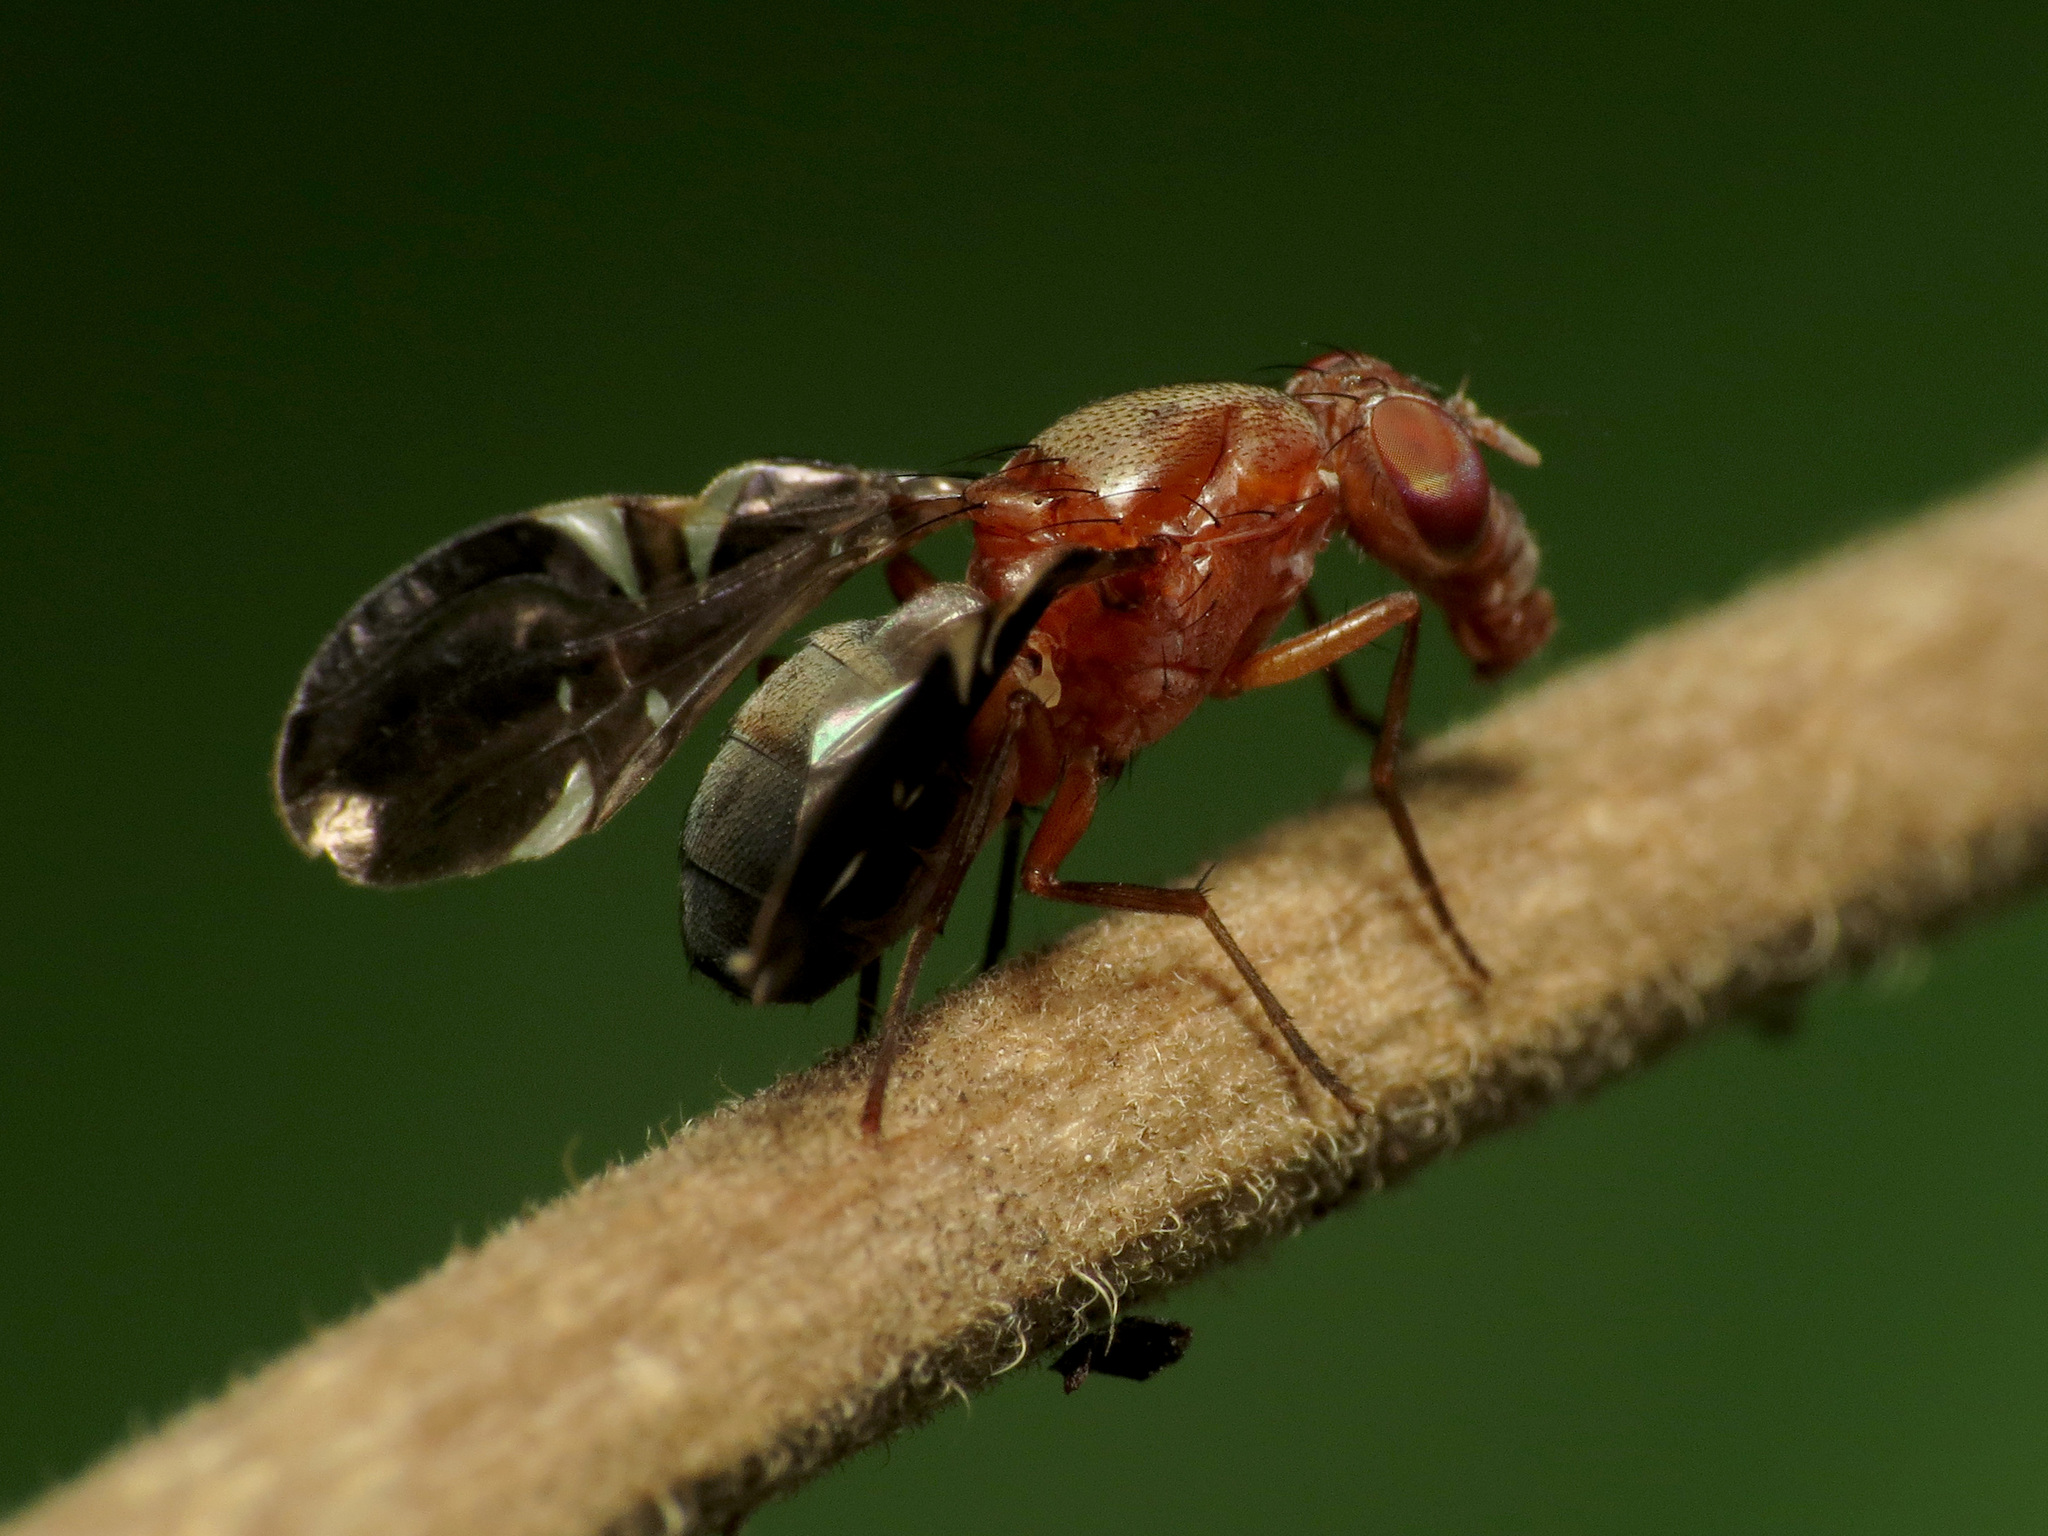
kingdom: Animalia
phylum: Arthropoda
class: Insecta
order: Diptera
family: Ulidiidae
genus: Delphinia
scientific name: Delphinia picta
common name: Common picture-winged fly
